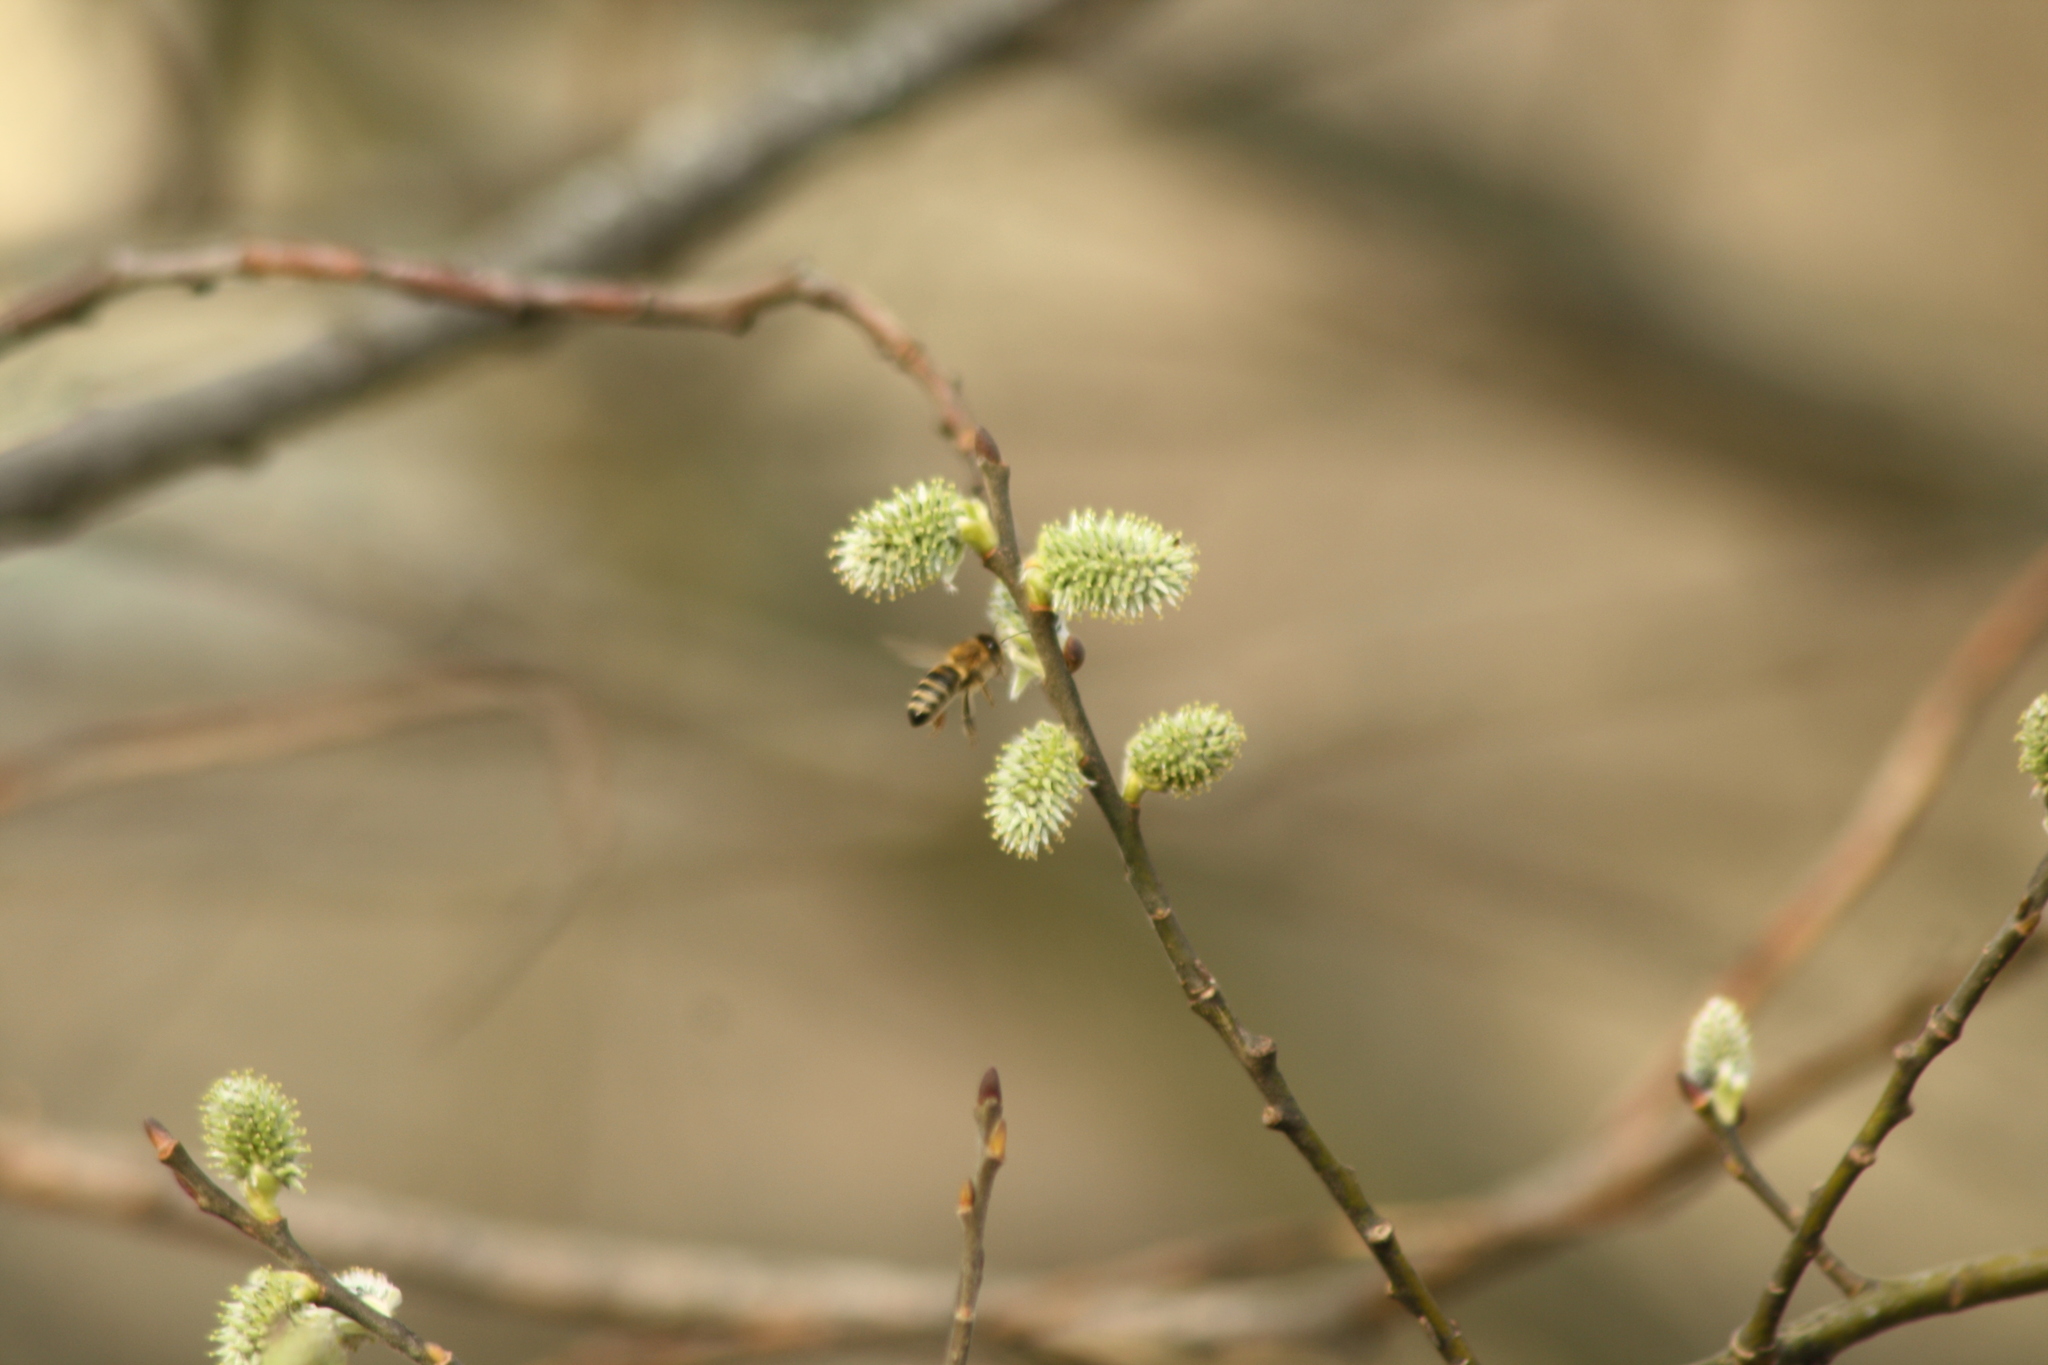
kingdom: Animalia
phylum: Arthropoda
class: Insecta
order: Hymenoptera
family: Apidae
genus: Apis
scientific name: Apis mellifera
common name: Honey bee
